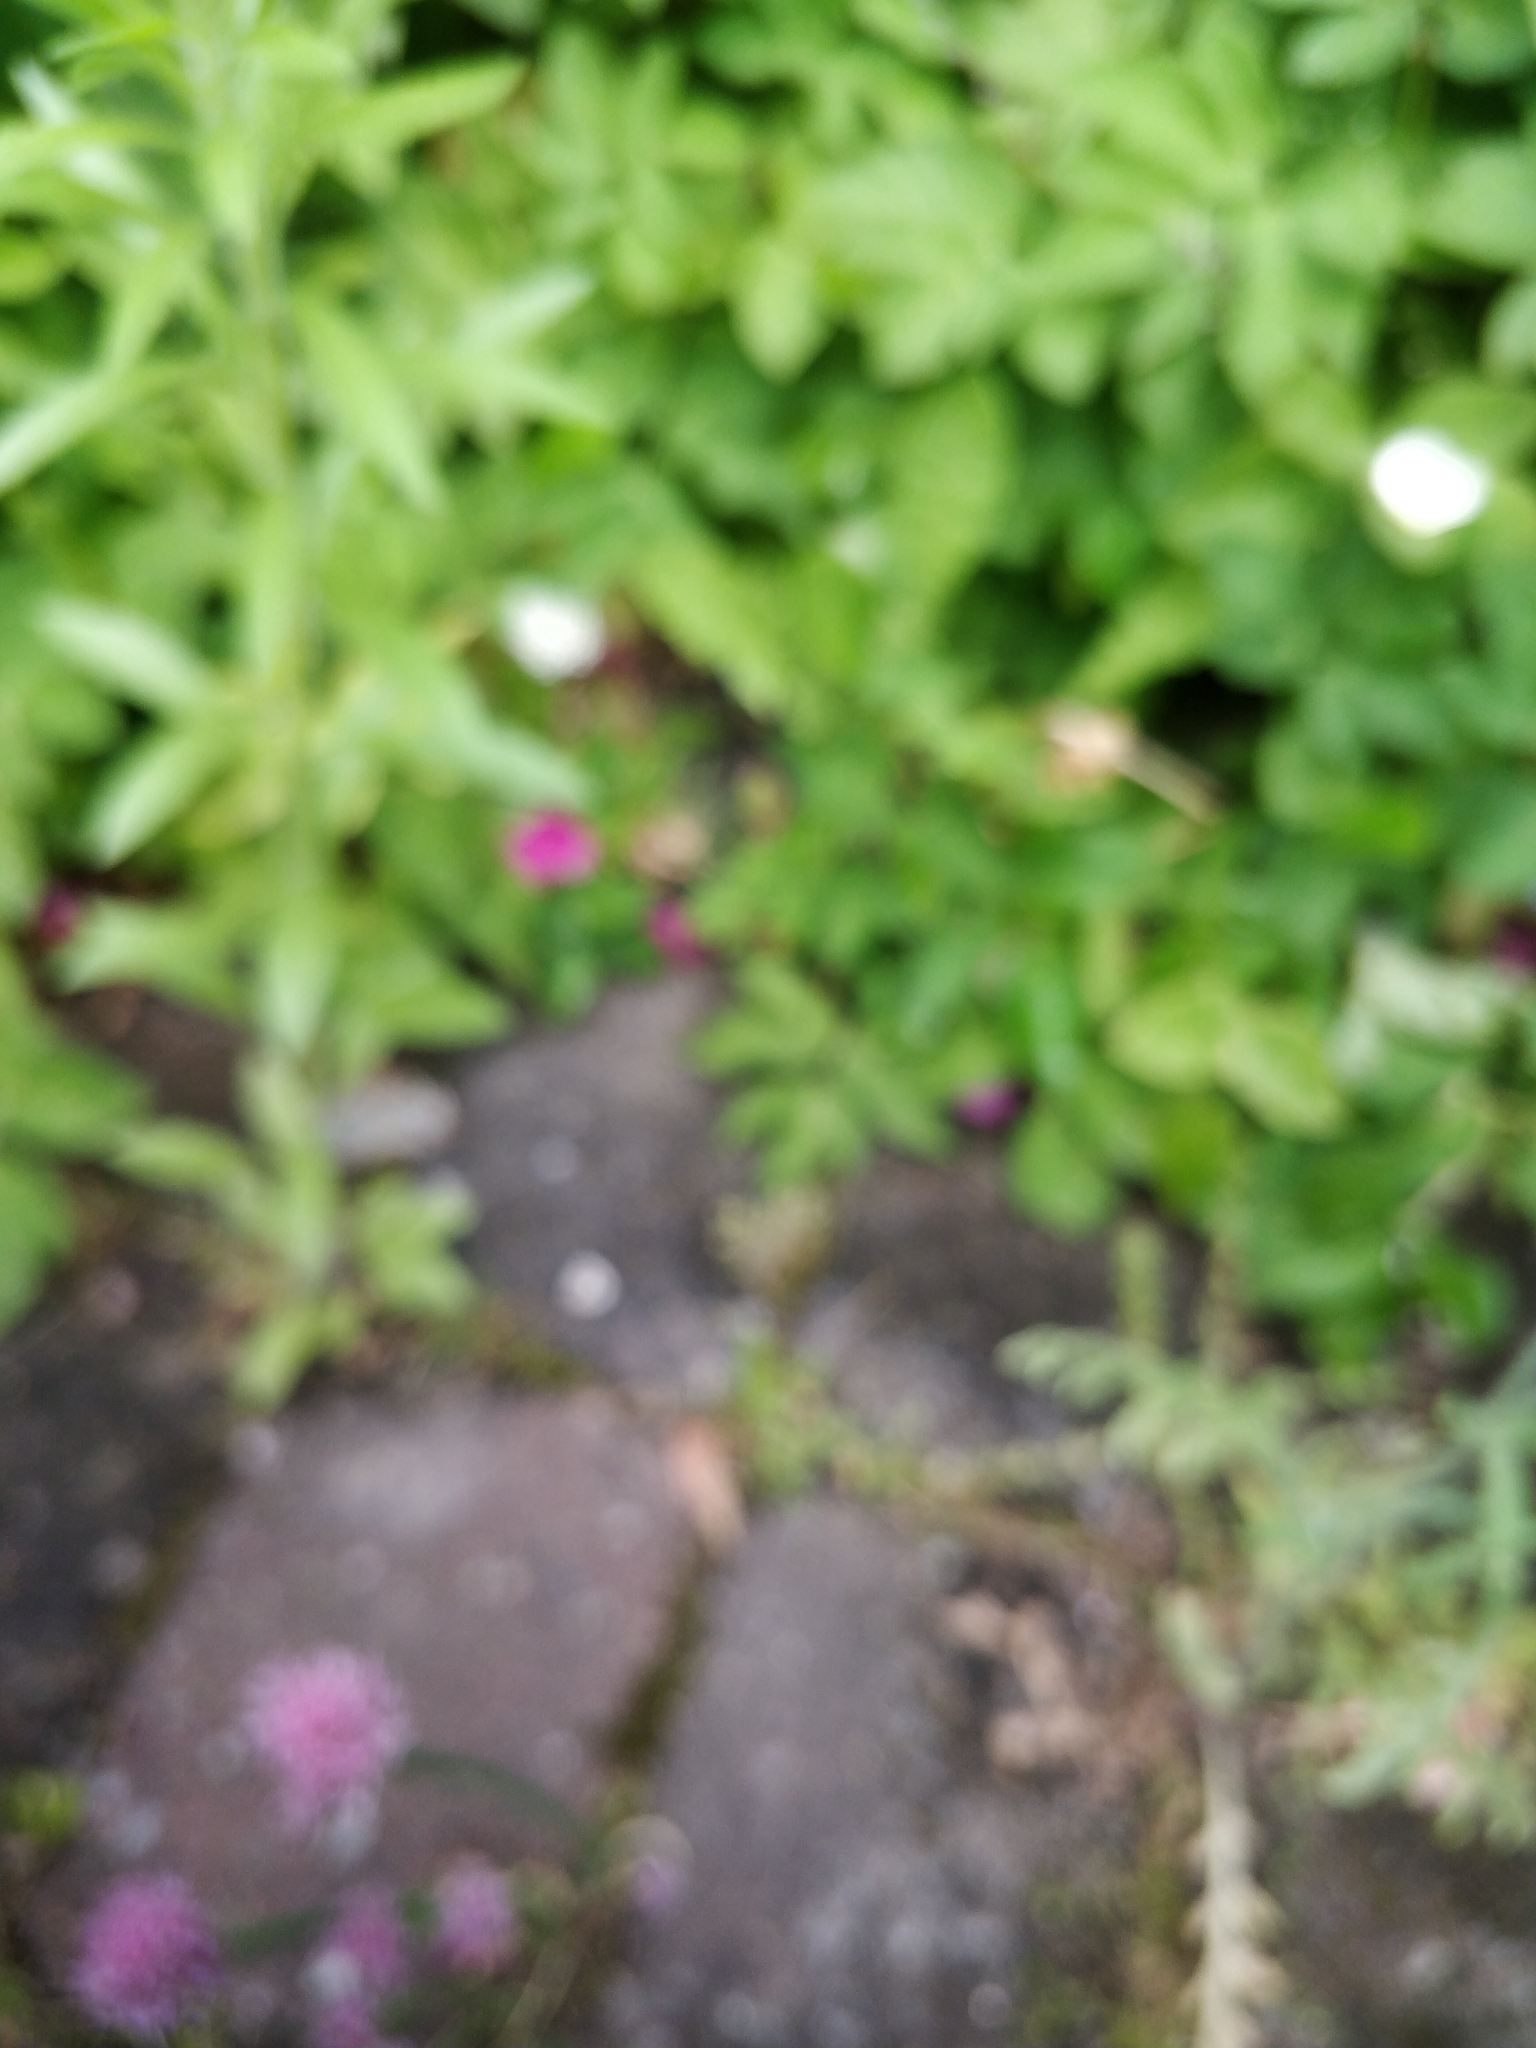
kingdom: Plantae
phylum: Tracheophyta
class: Liliopsida
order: Asparagales
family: Amaryllidaceae
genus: Allium
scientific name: Allium schoenoprasum
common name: Chives
